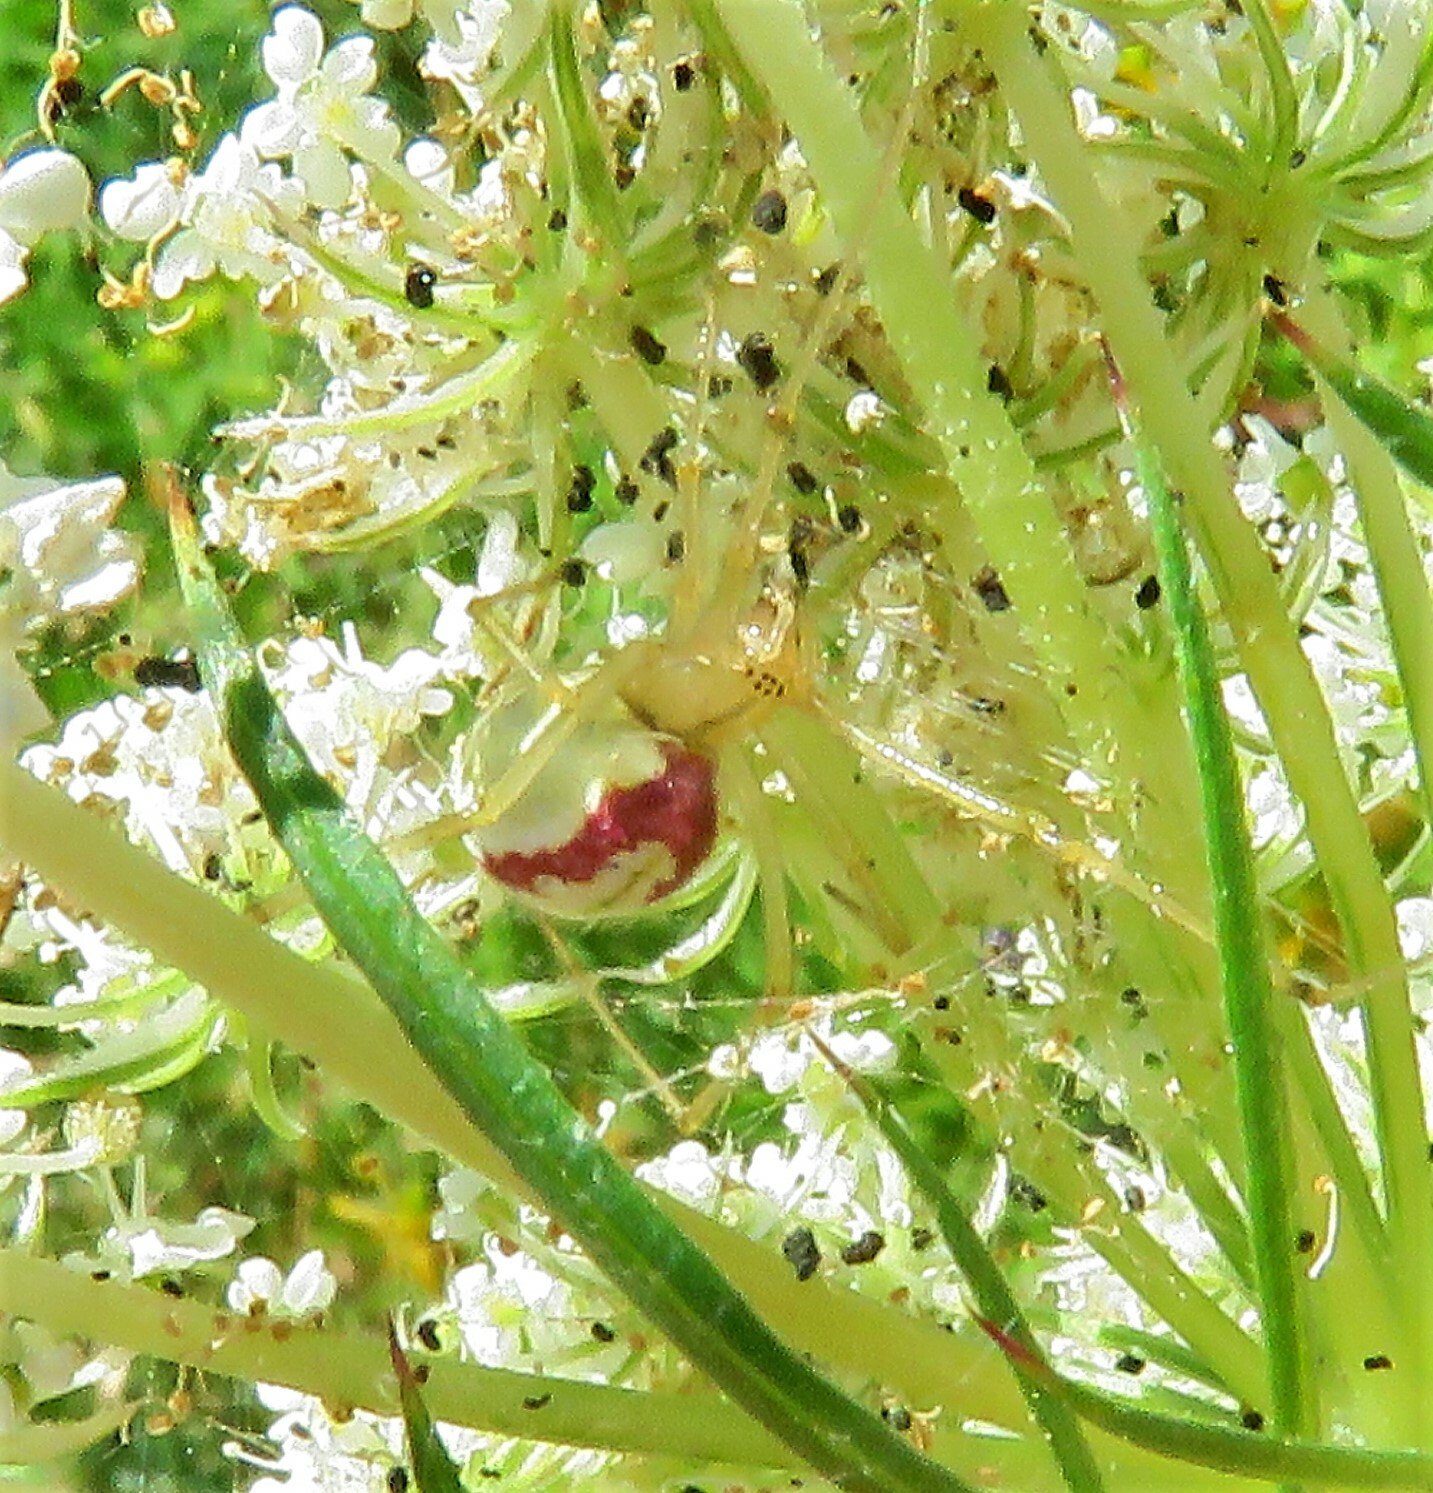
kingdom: Animalia
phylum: Arthropoda
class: Arachnida
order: Araneae
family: Thomisidae
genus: Misumena
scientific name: Misumena vatia
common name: Goldenrod crab spider
